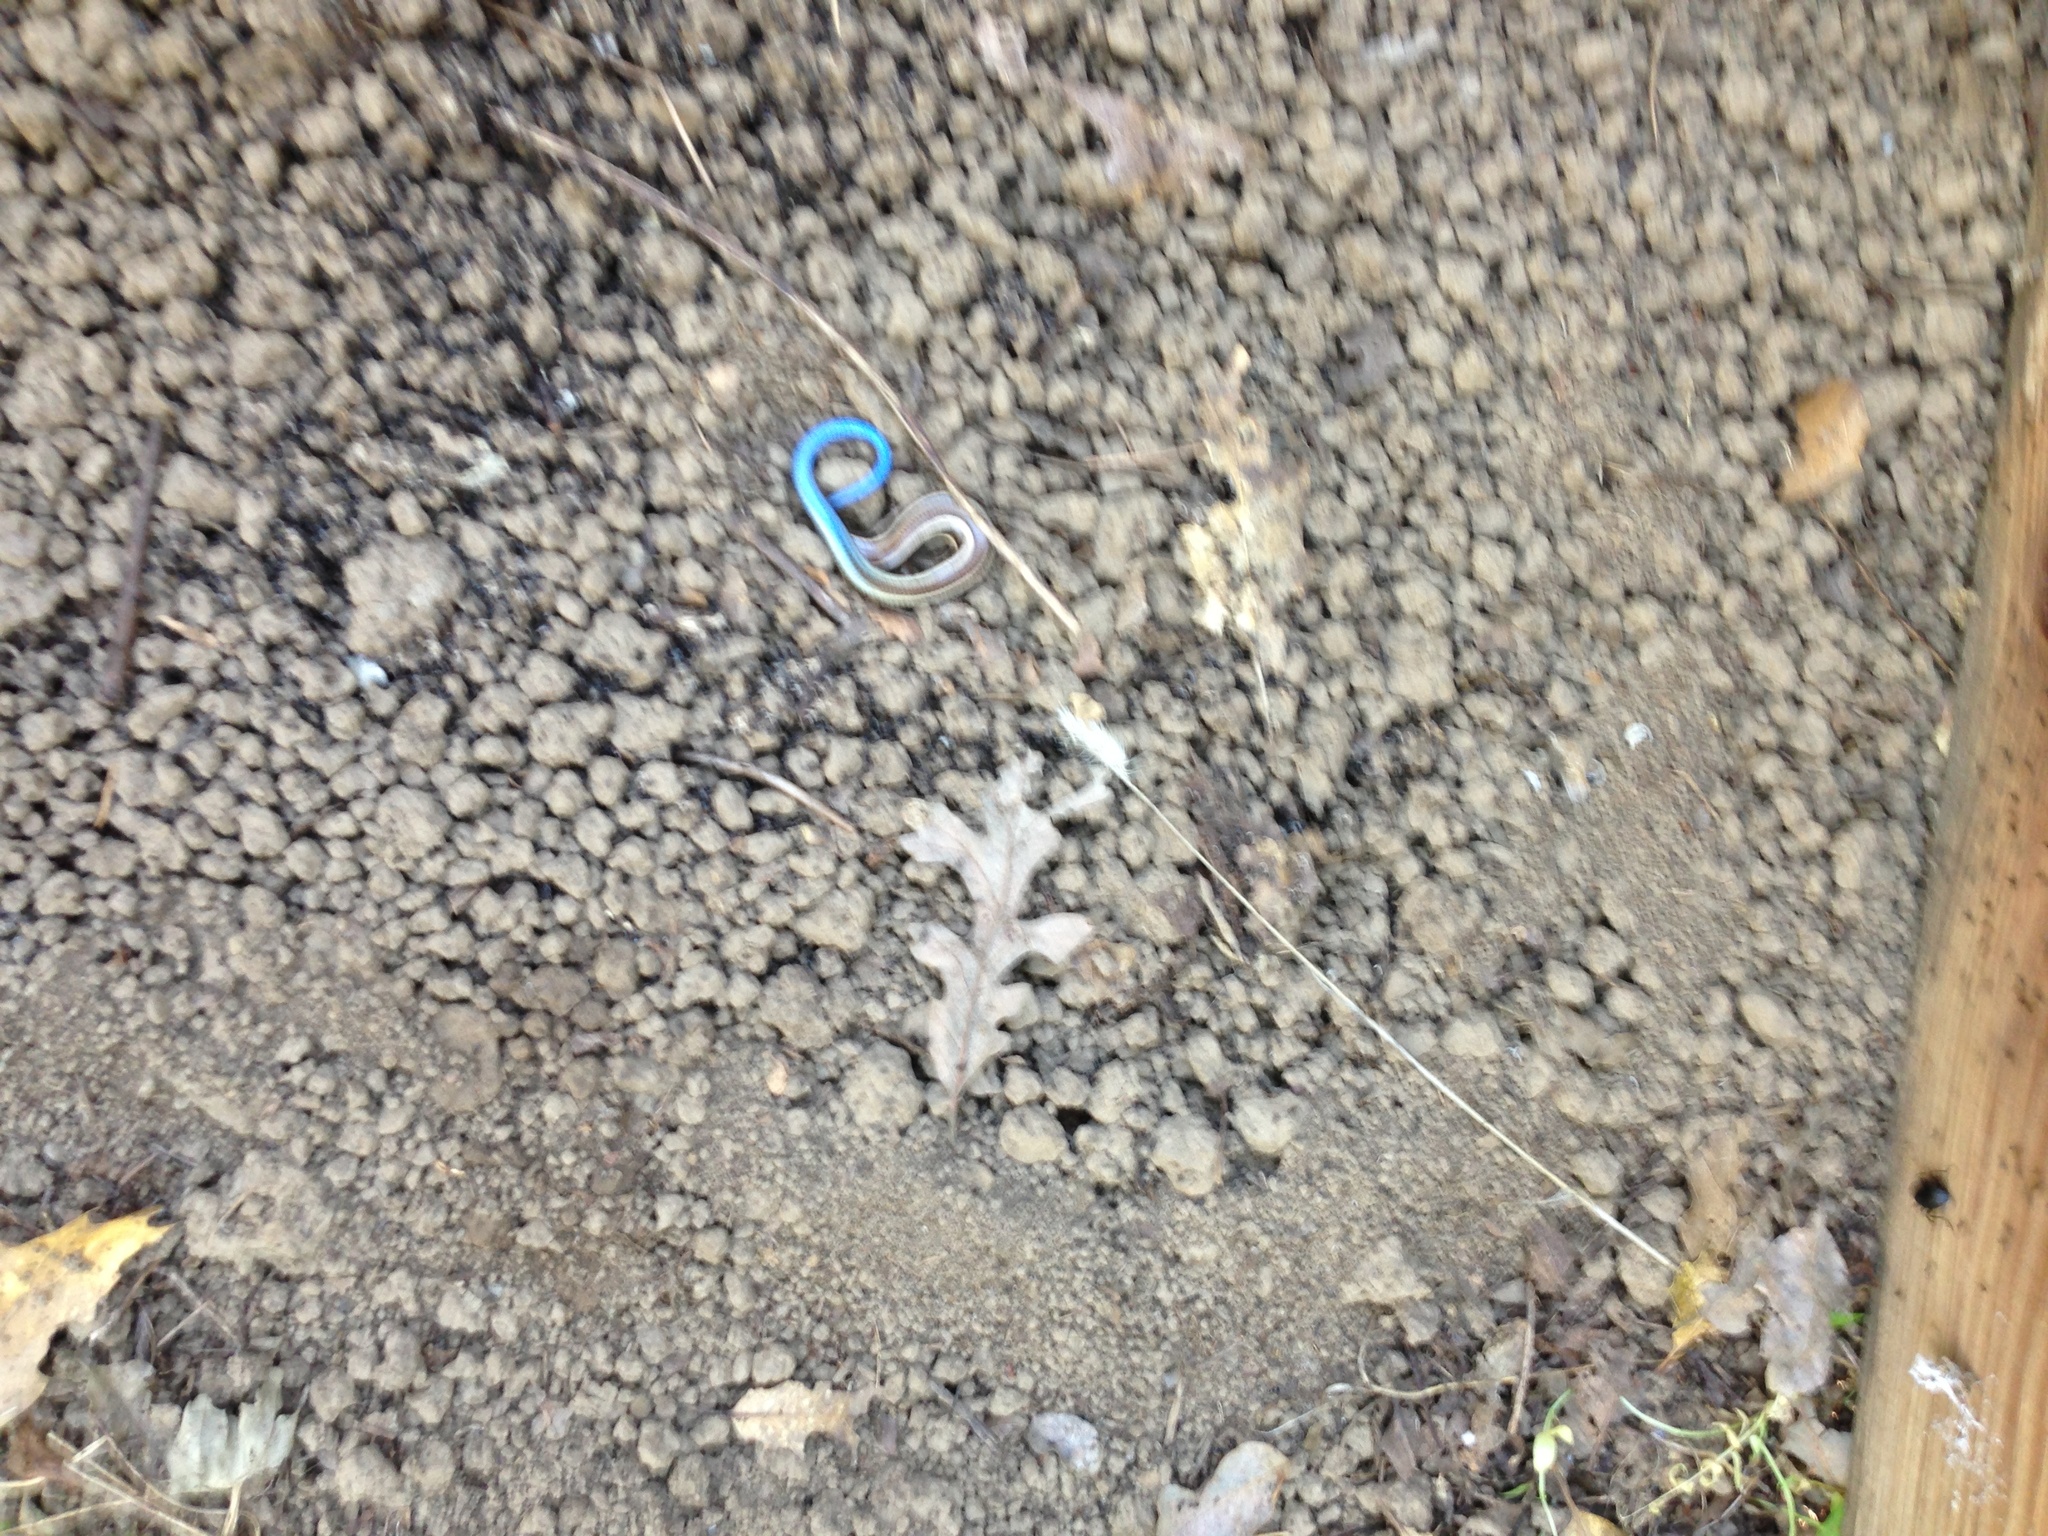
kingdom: Animalia
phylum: Chordata
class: Squamata
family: Scincidae
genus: Plestiodon
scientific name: Plestiodon skiltonianus
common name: Coronado island skink [interparietalis]
